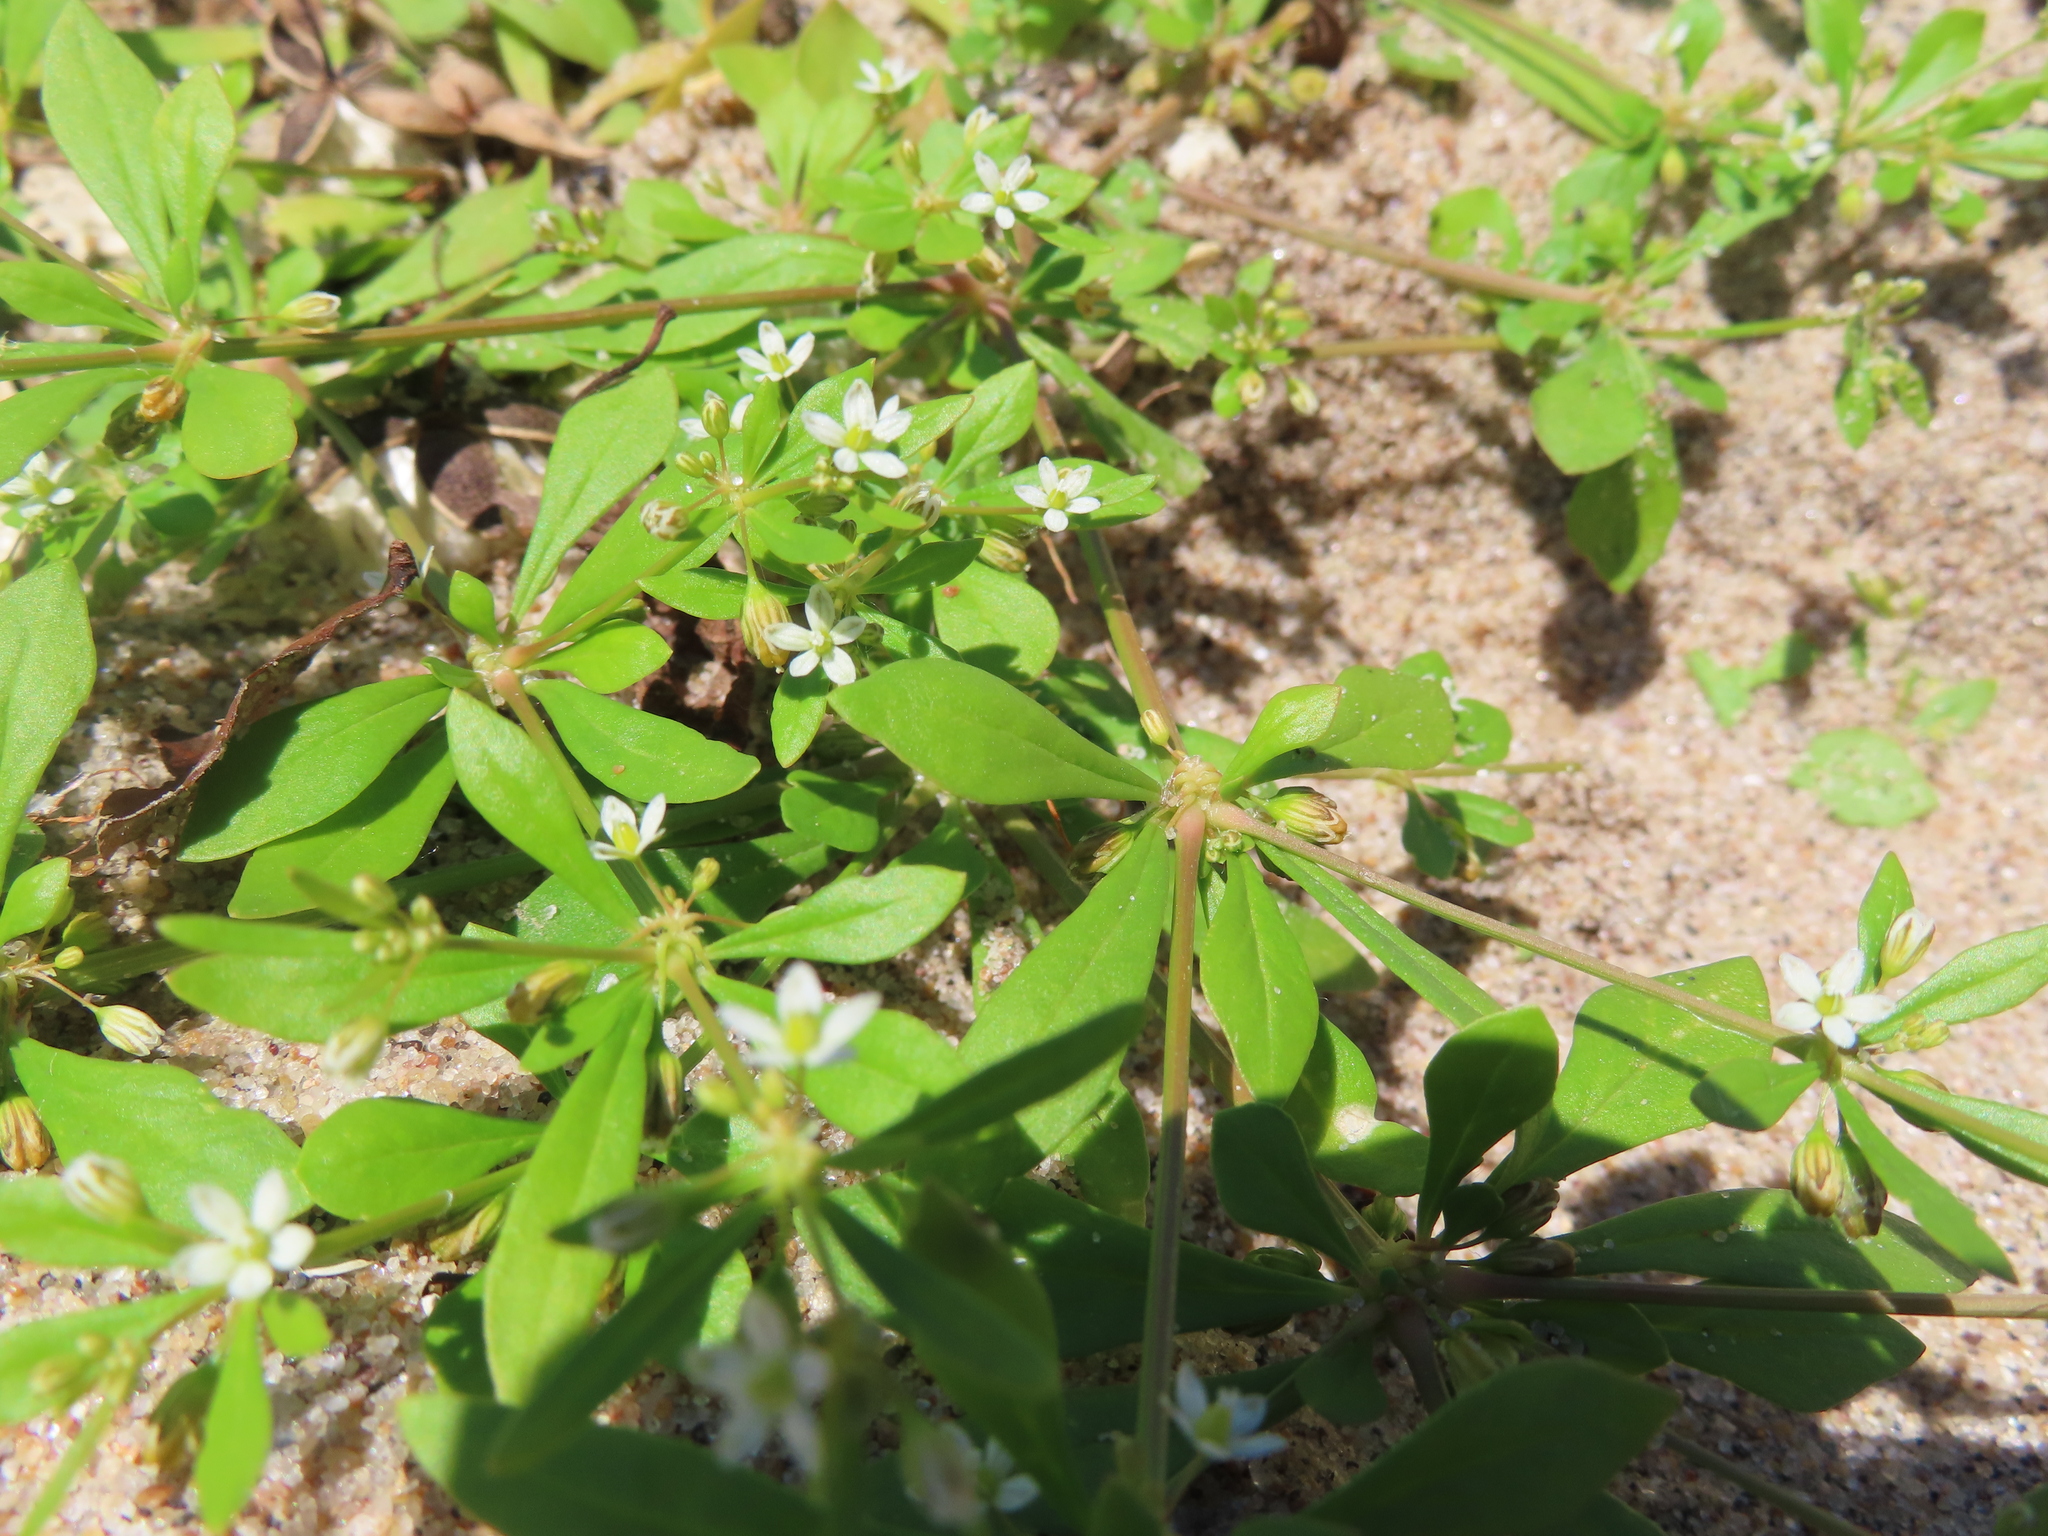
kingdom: Plantae
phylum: Tracheophyta
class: Magnoliopsida
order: Caryophyllales
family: Molluginaceae
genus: Mollugo
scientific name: Mollugo verticillata
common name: Green carpetweed
